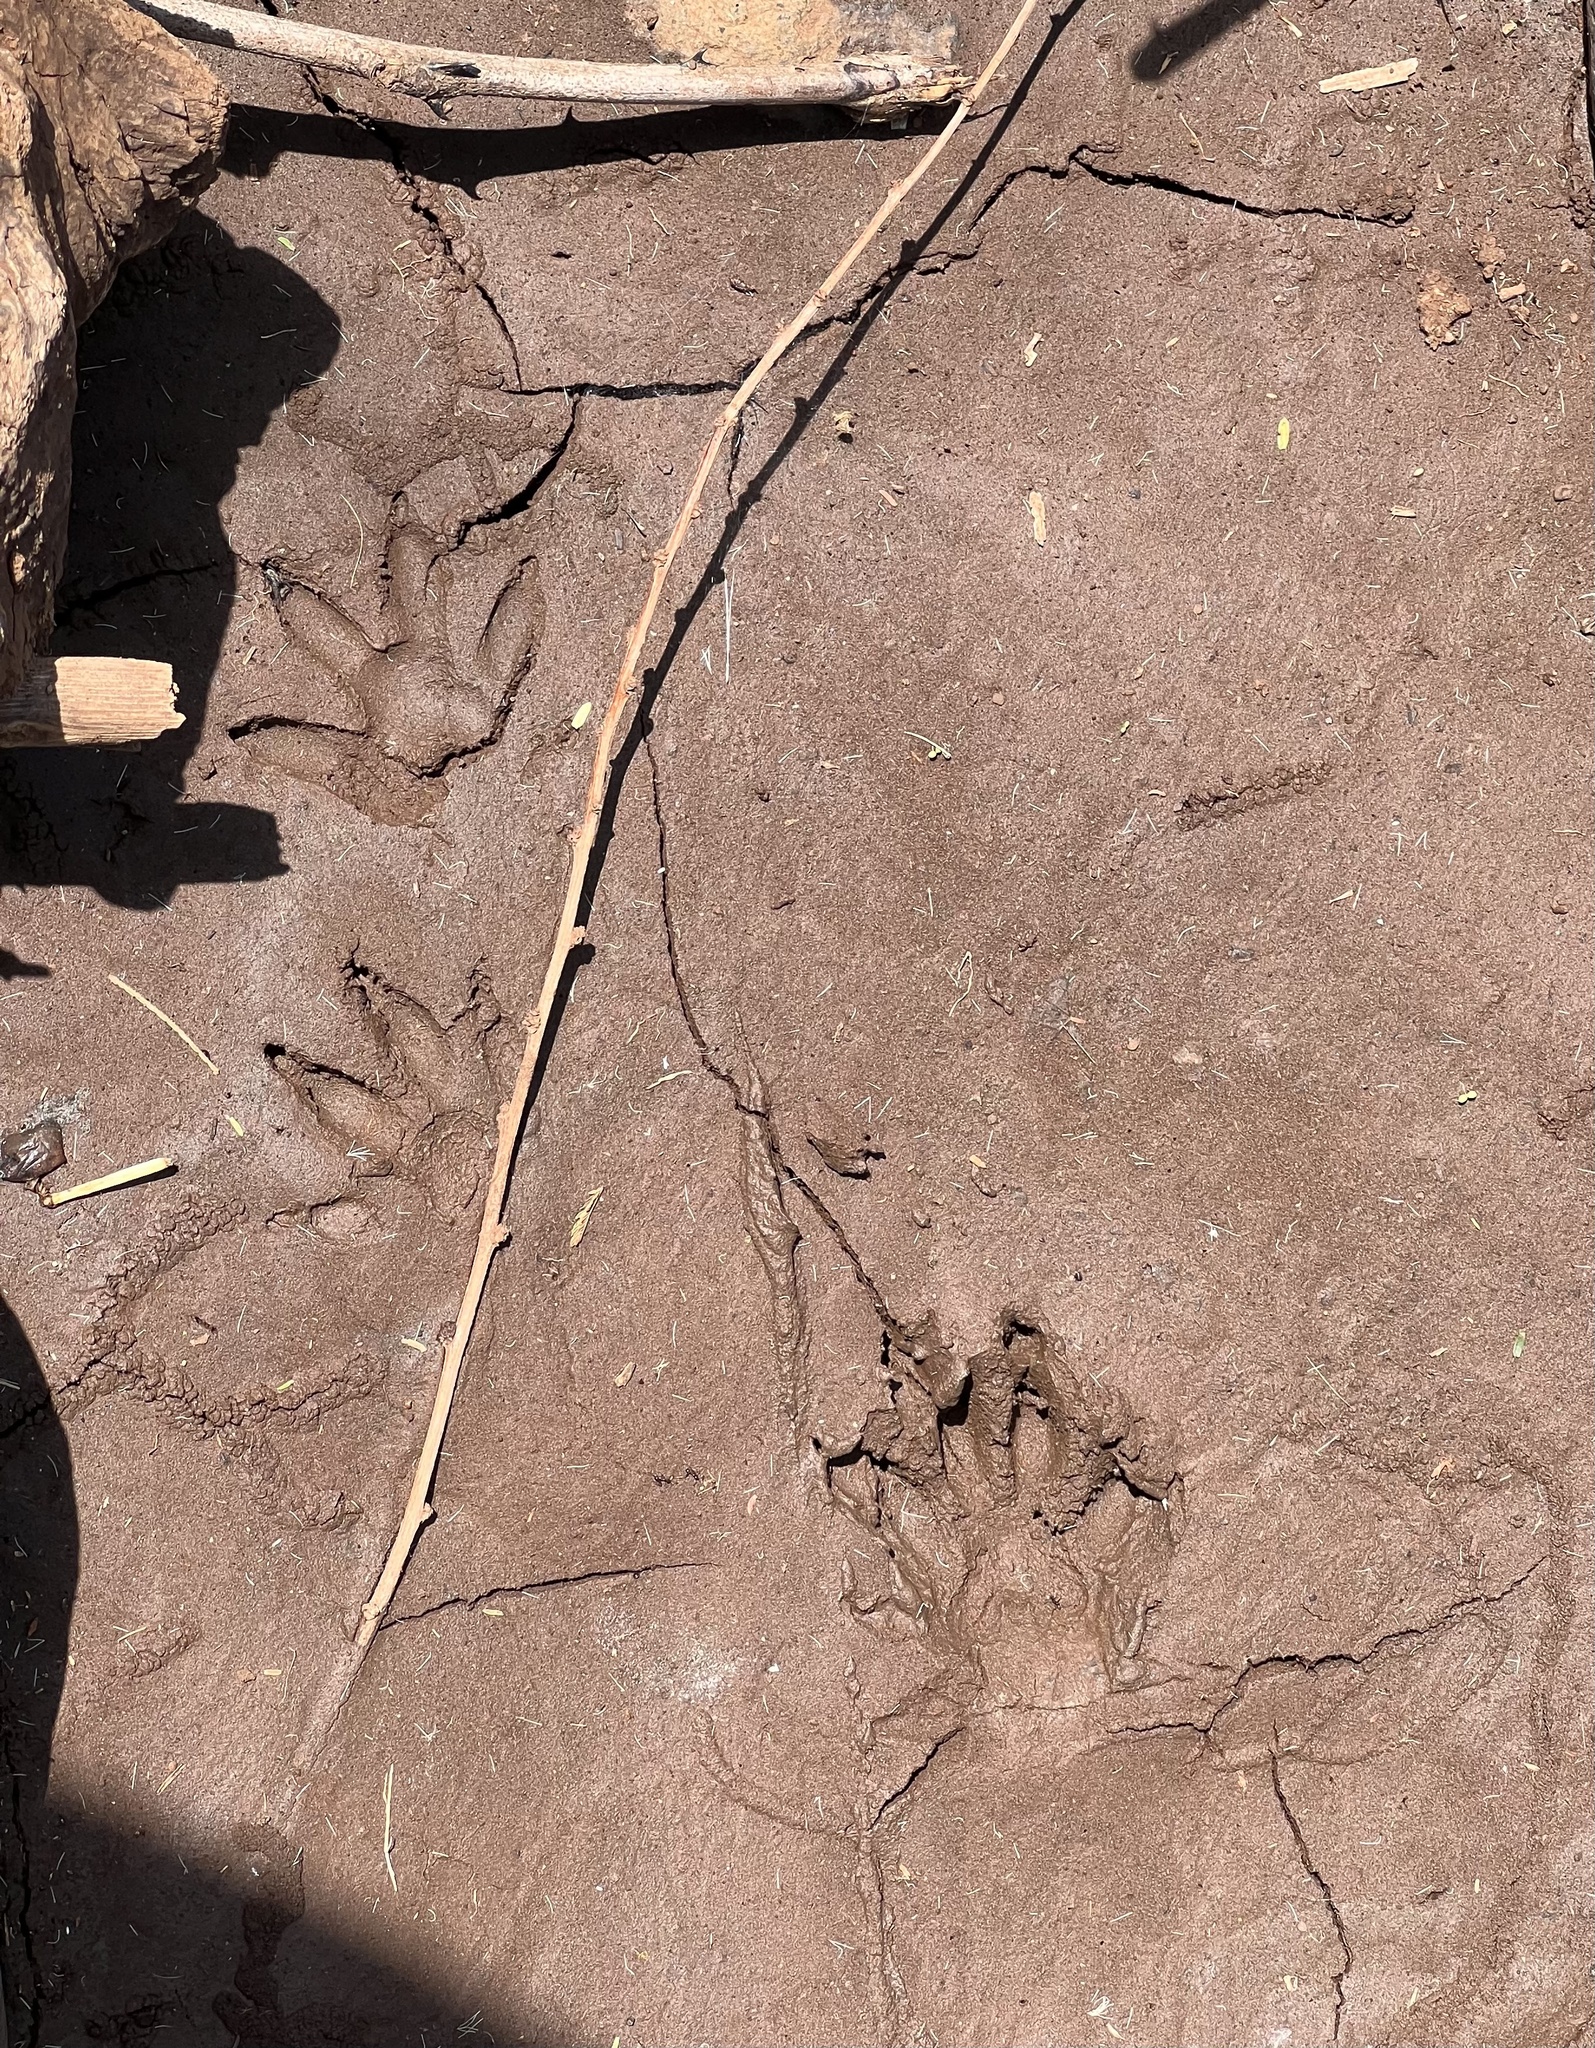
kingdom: Animalia
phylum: Chordata
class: Mammalia
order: Carnivora
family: Herpestidae
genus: Atilax
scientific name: Atilax paludinosus
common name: Marsh mongoose
